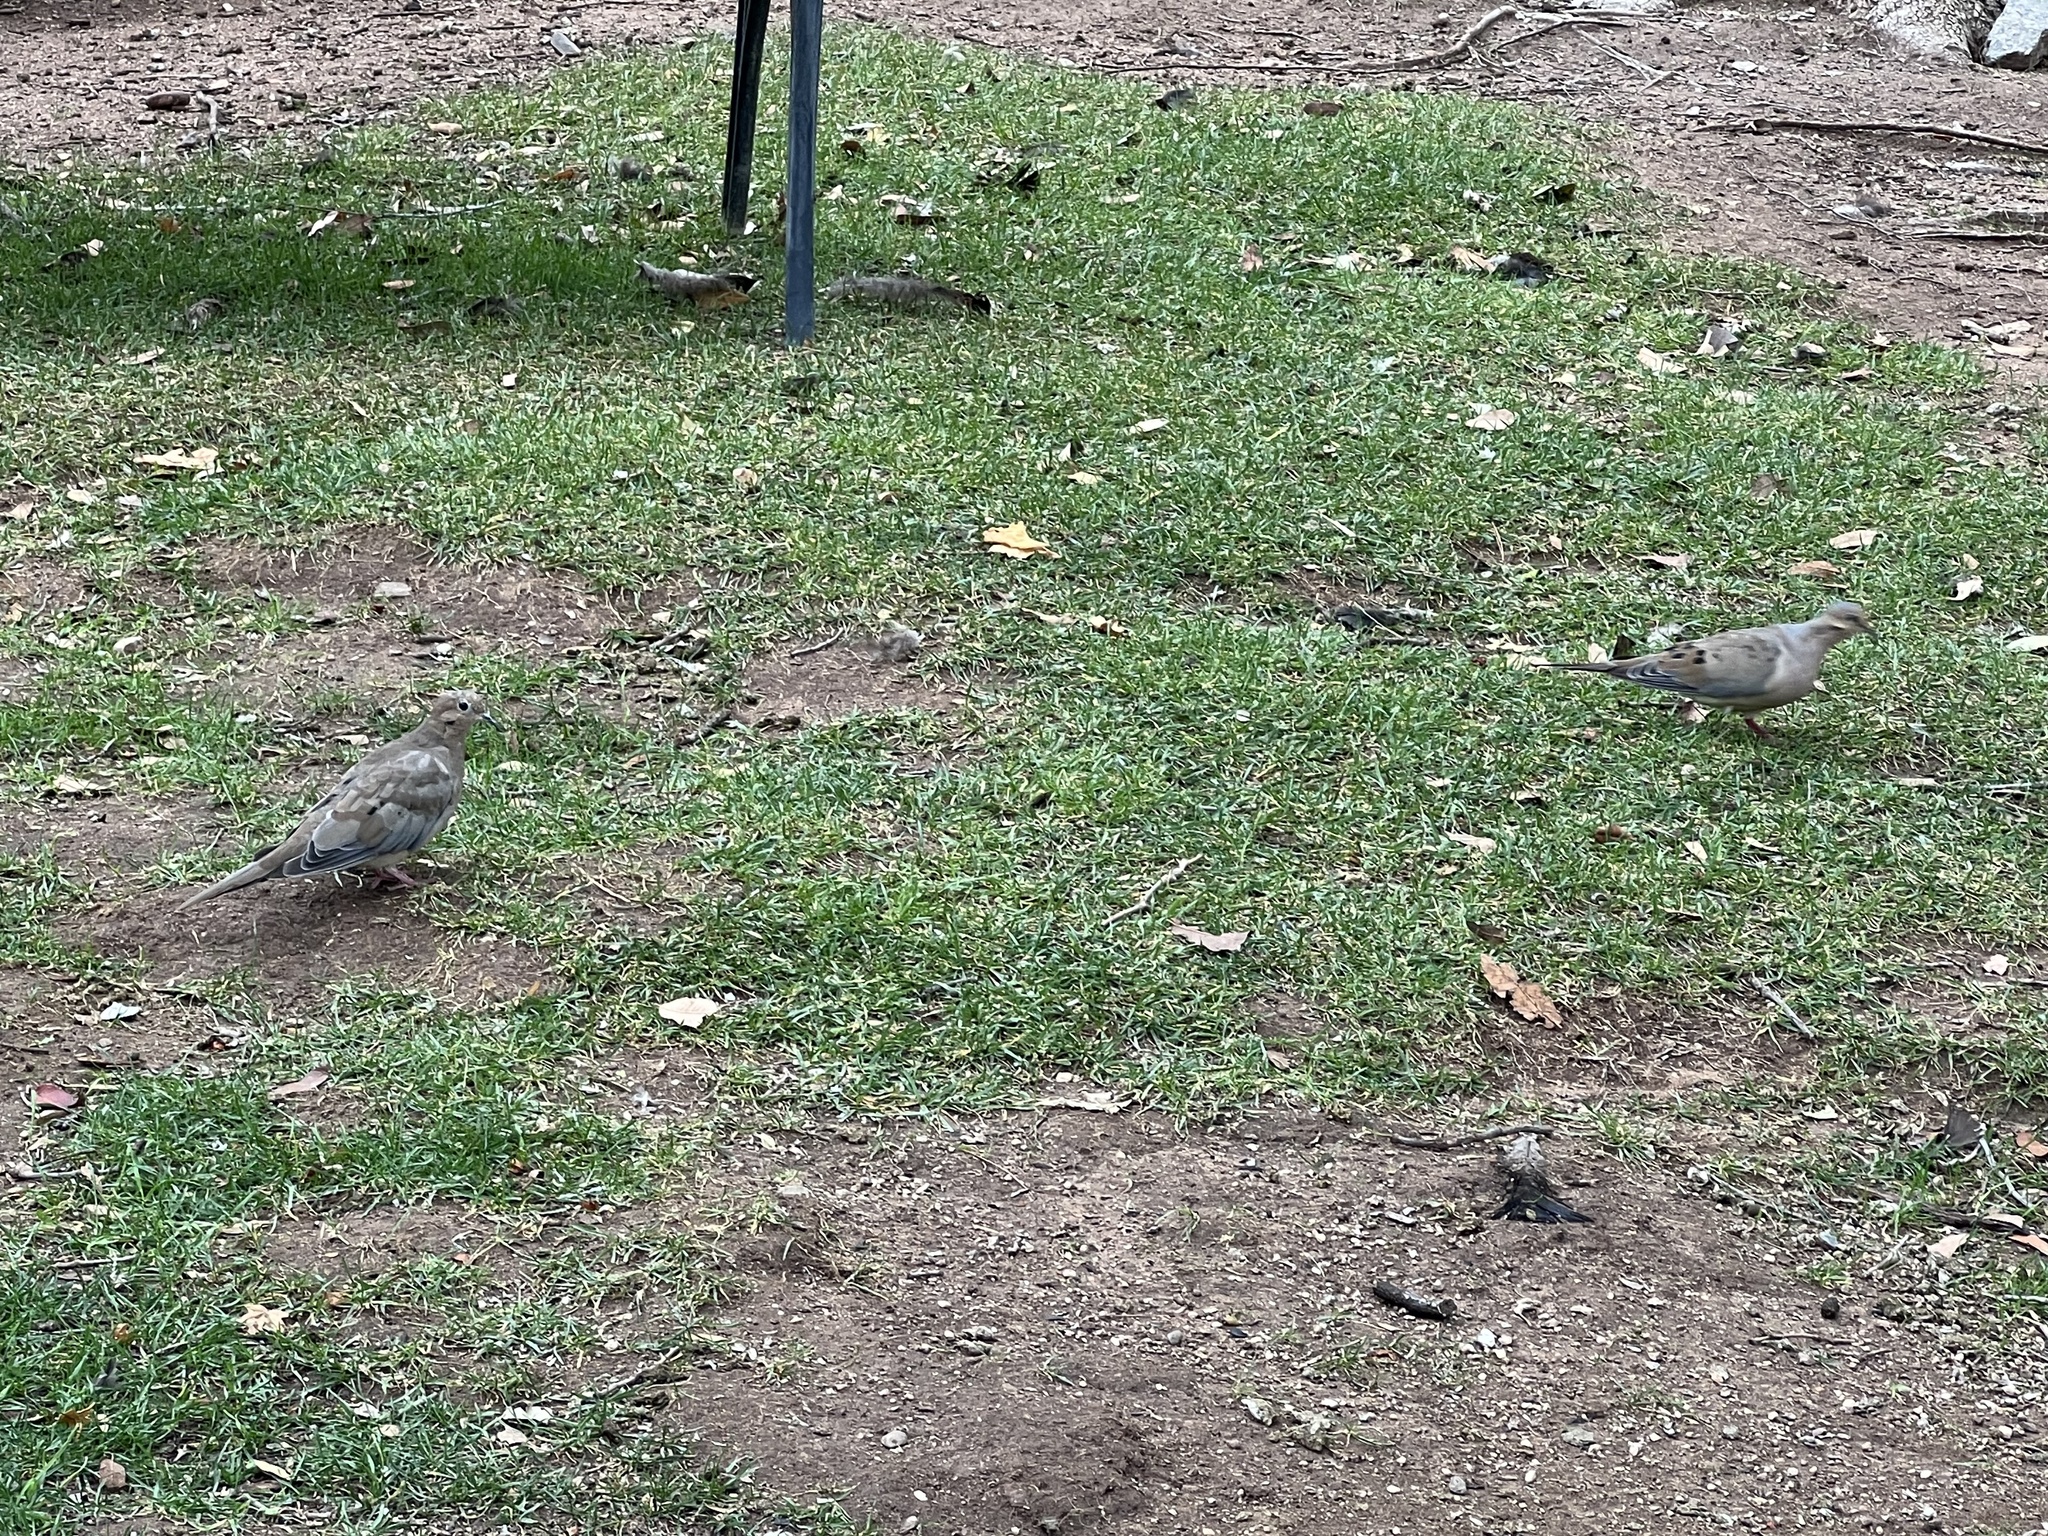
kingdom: Animalia
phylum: Chordata
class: Aves
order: Columbiformes
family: Columbidae
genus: Zenaida
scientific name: Zenaida macroura
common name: Mourning dove
